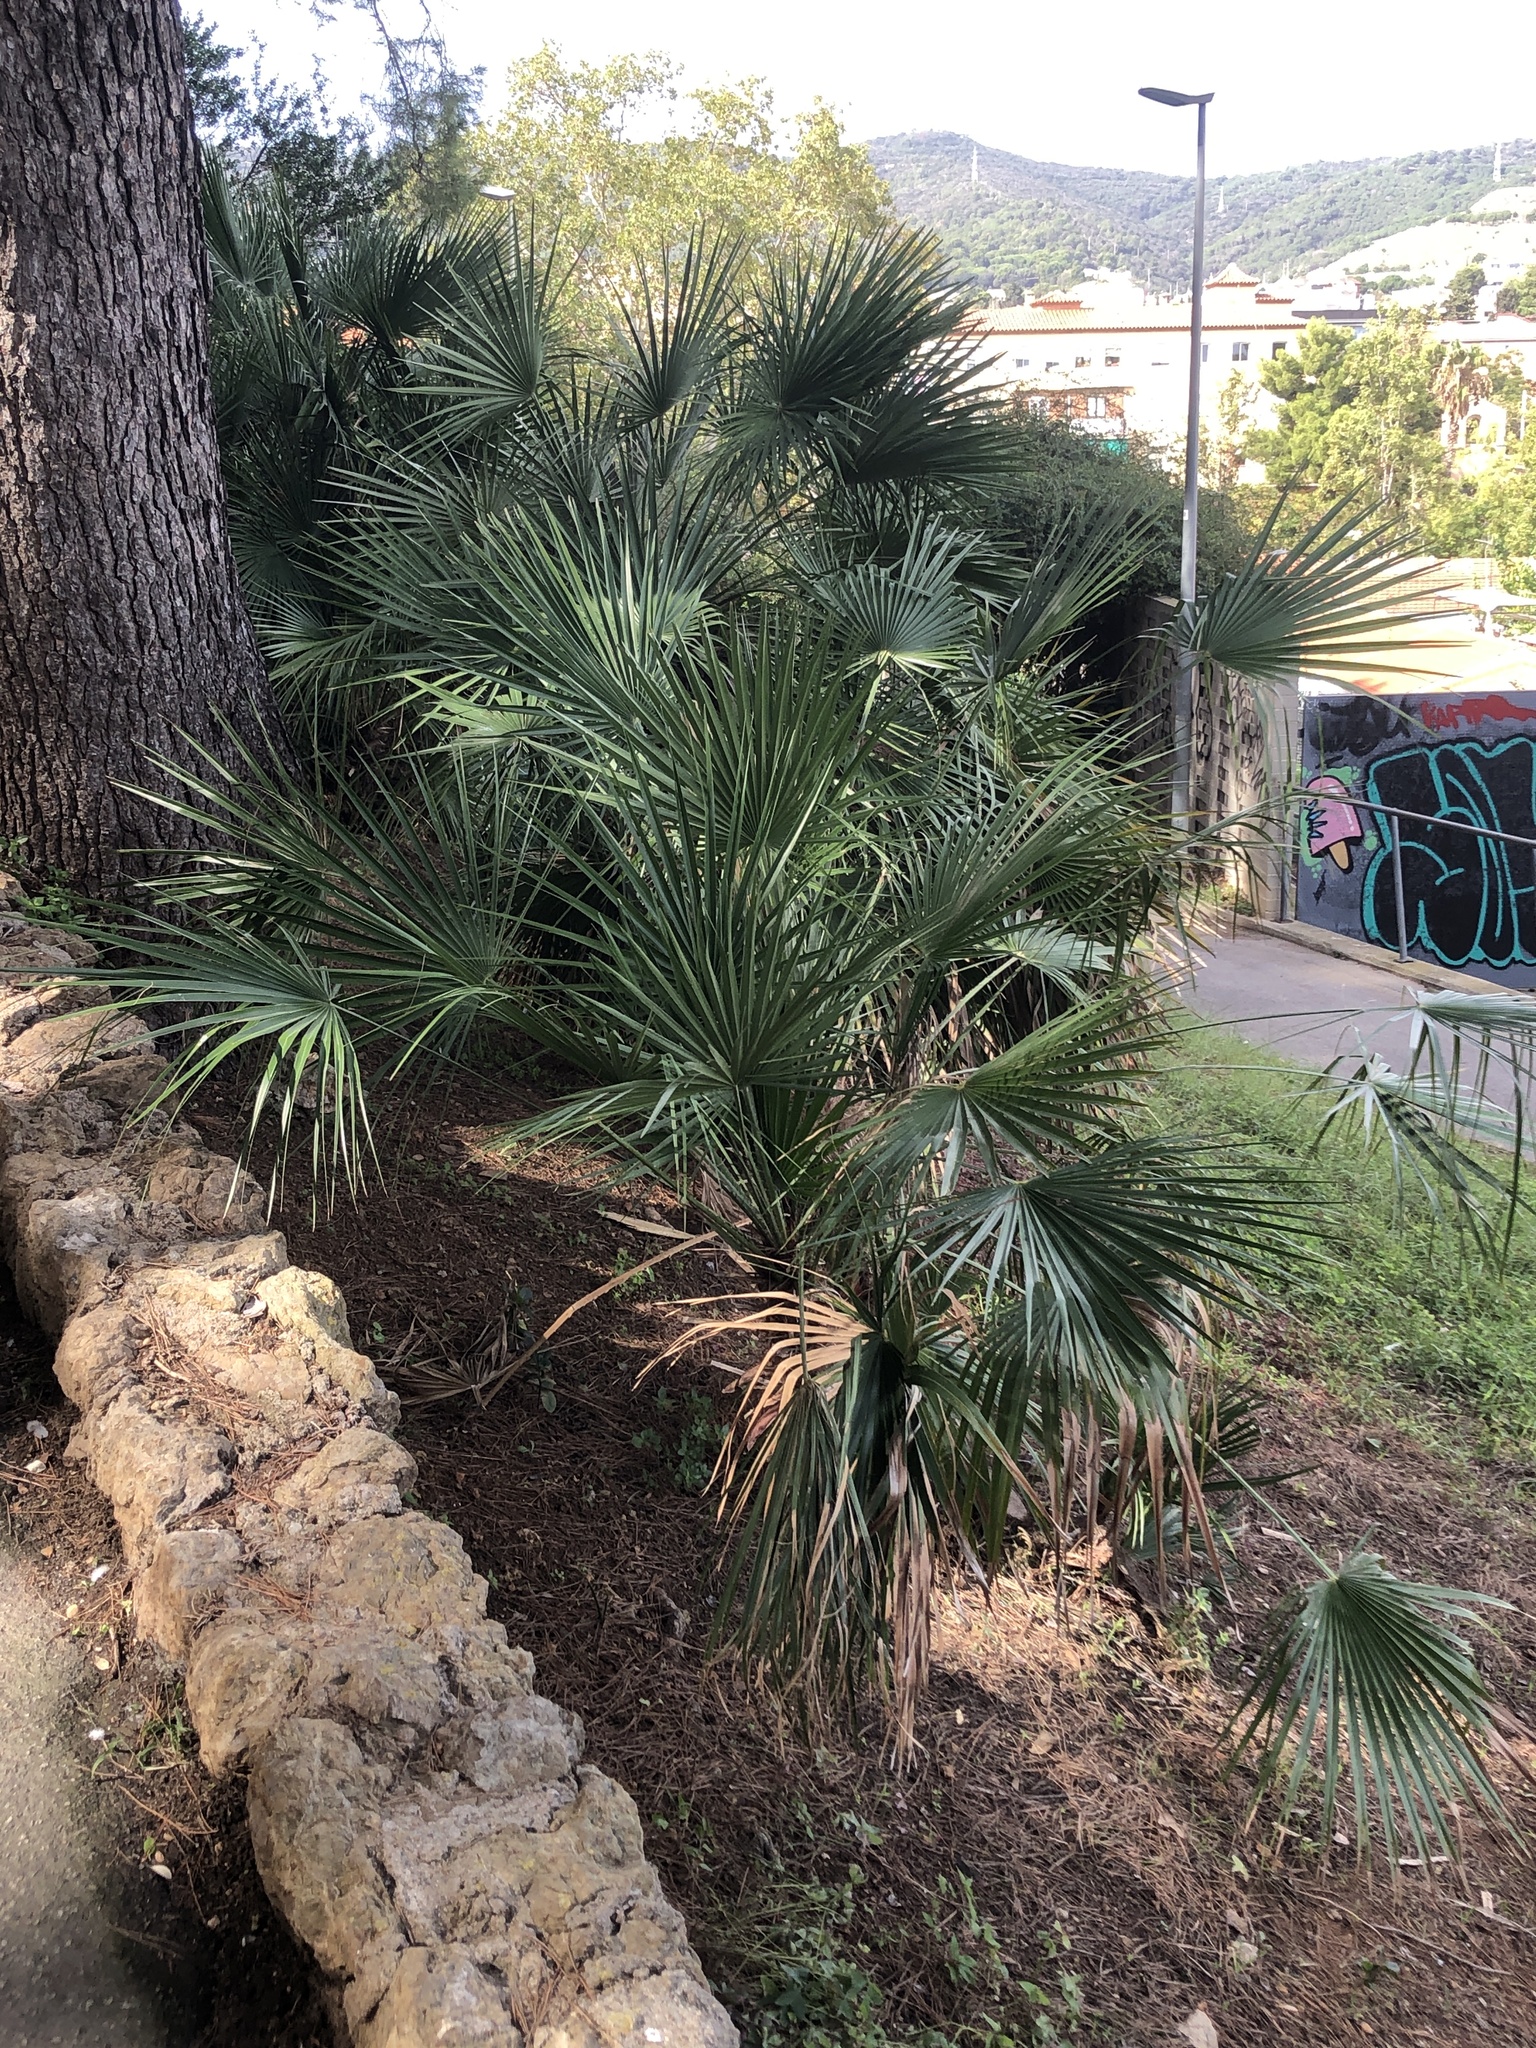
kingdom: Plantae
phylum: Tracheophyta
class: Liliopsida
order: Arecales
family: Arecaceae
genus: Chamaerops
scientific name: Chamaerops humilis
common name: Dwarf fan palm
